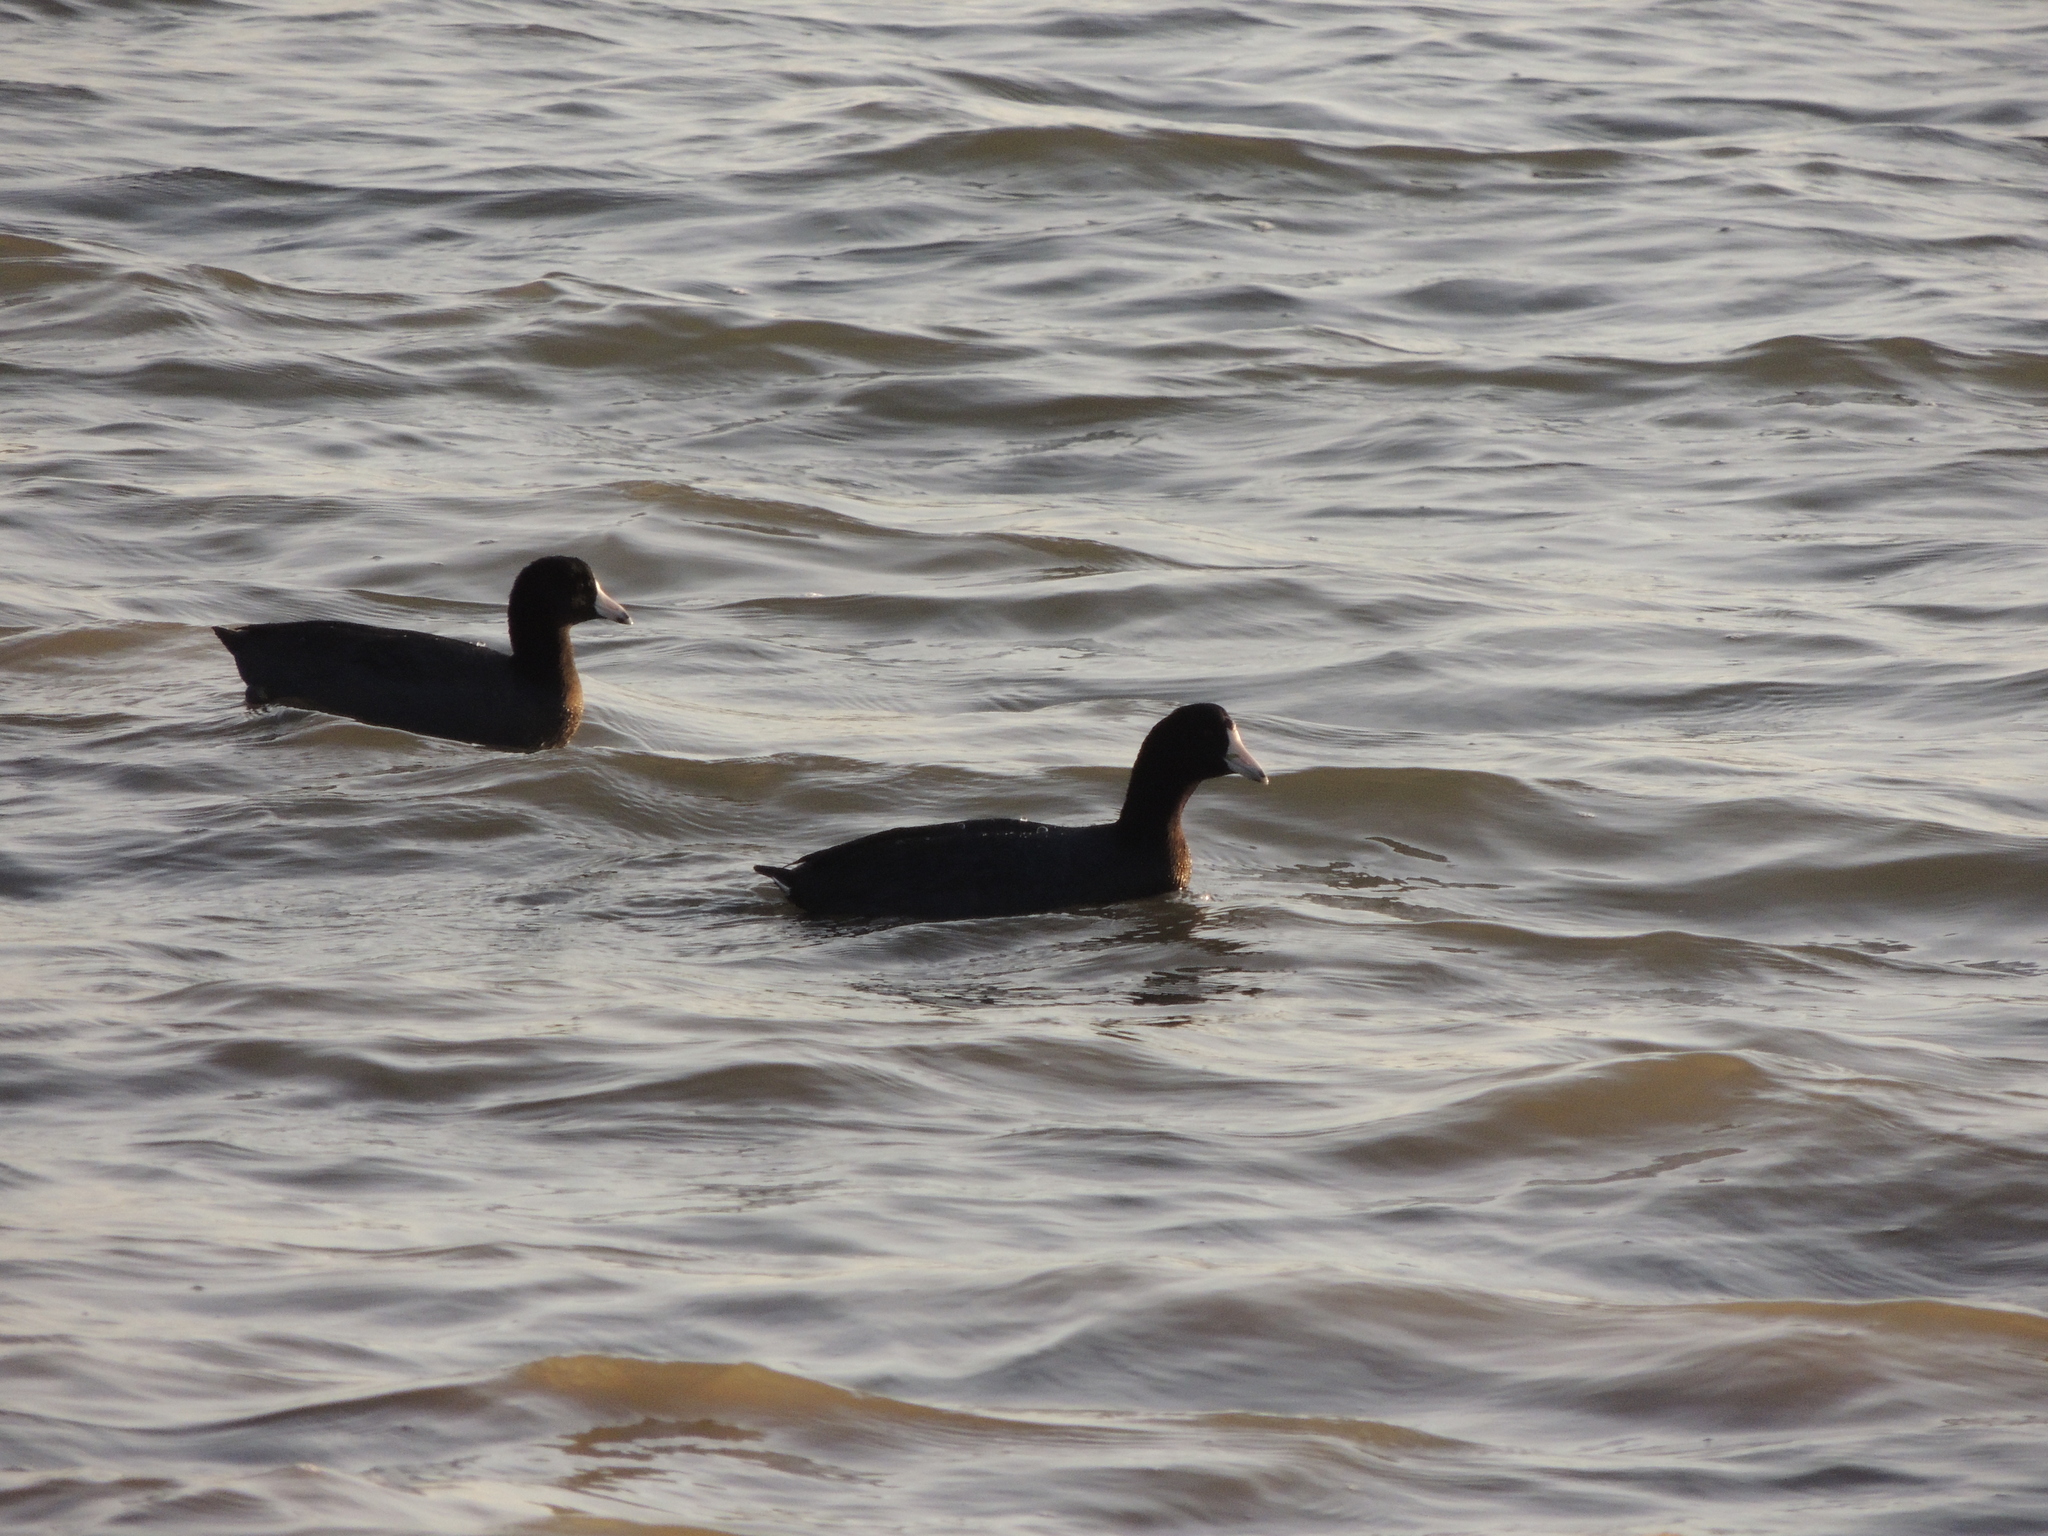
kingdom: Animalia
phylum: Chordata
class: Aves
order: Gruiformes
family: Rallidae
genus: Fulica
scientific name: Fulica americana
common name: American coot
